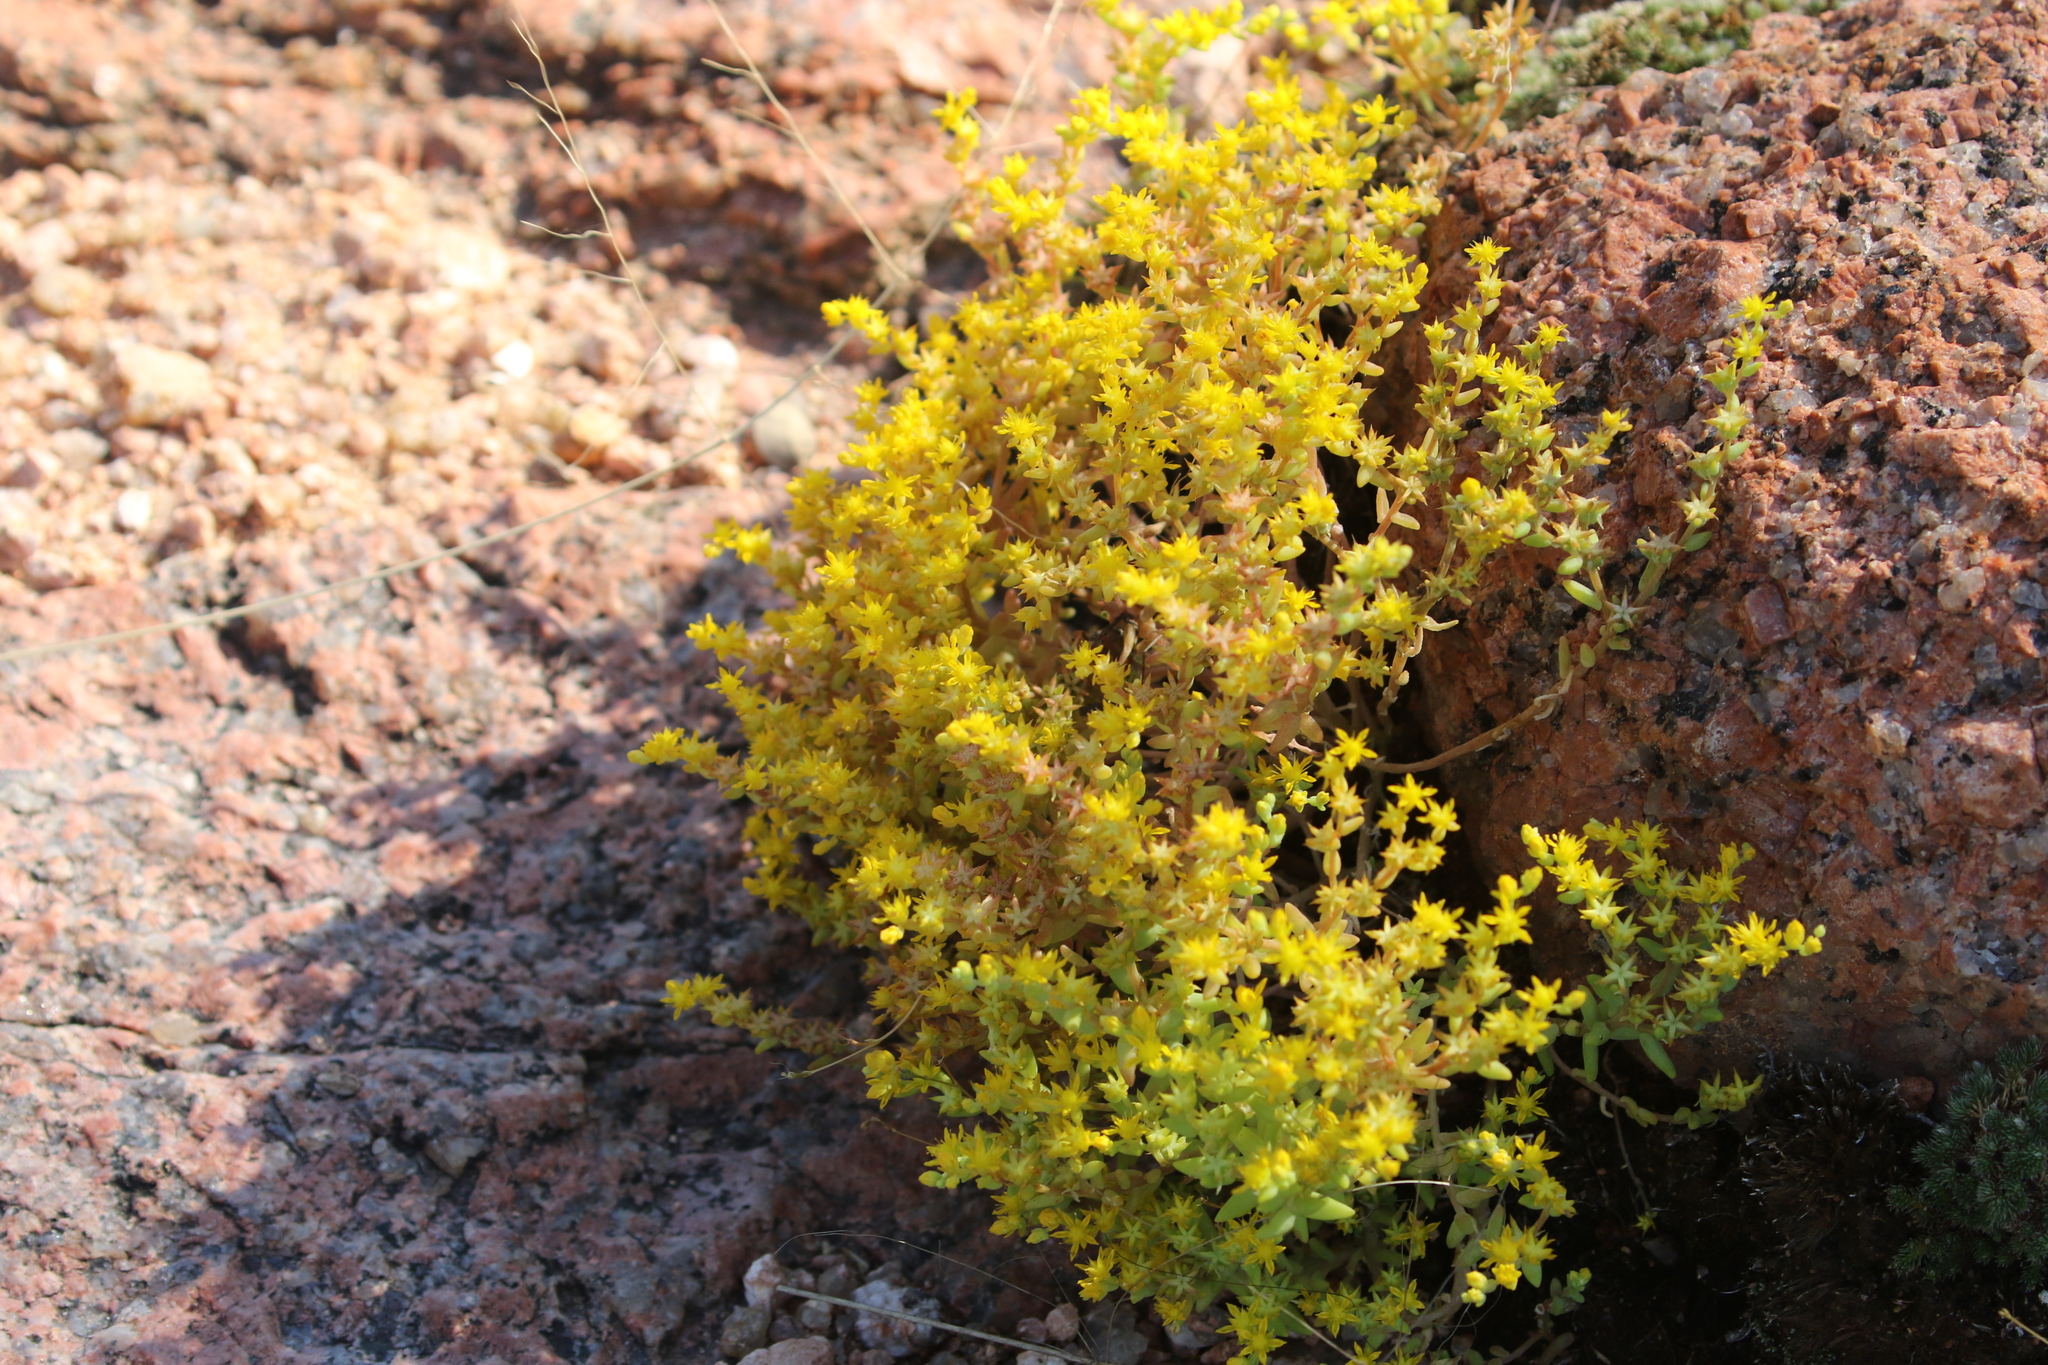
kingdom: Plantae
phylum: Tracheophyta
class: Magnoliopsida
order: Saxifragales
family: Crassulaceae
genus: Sedum
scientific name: Sedum nuttallii
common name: Yellow stonecrop
